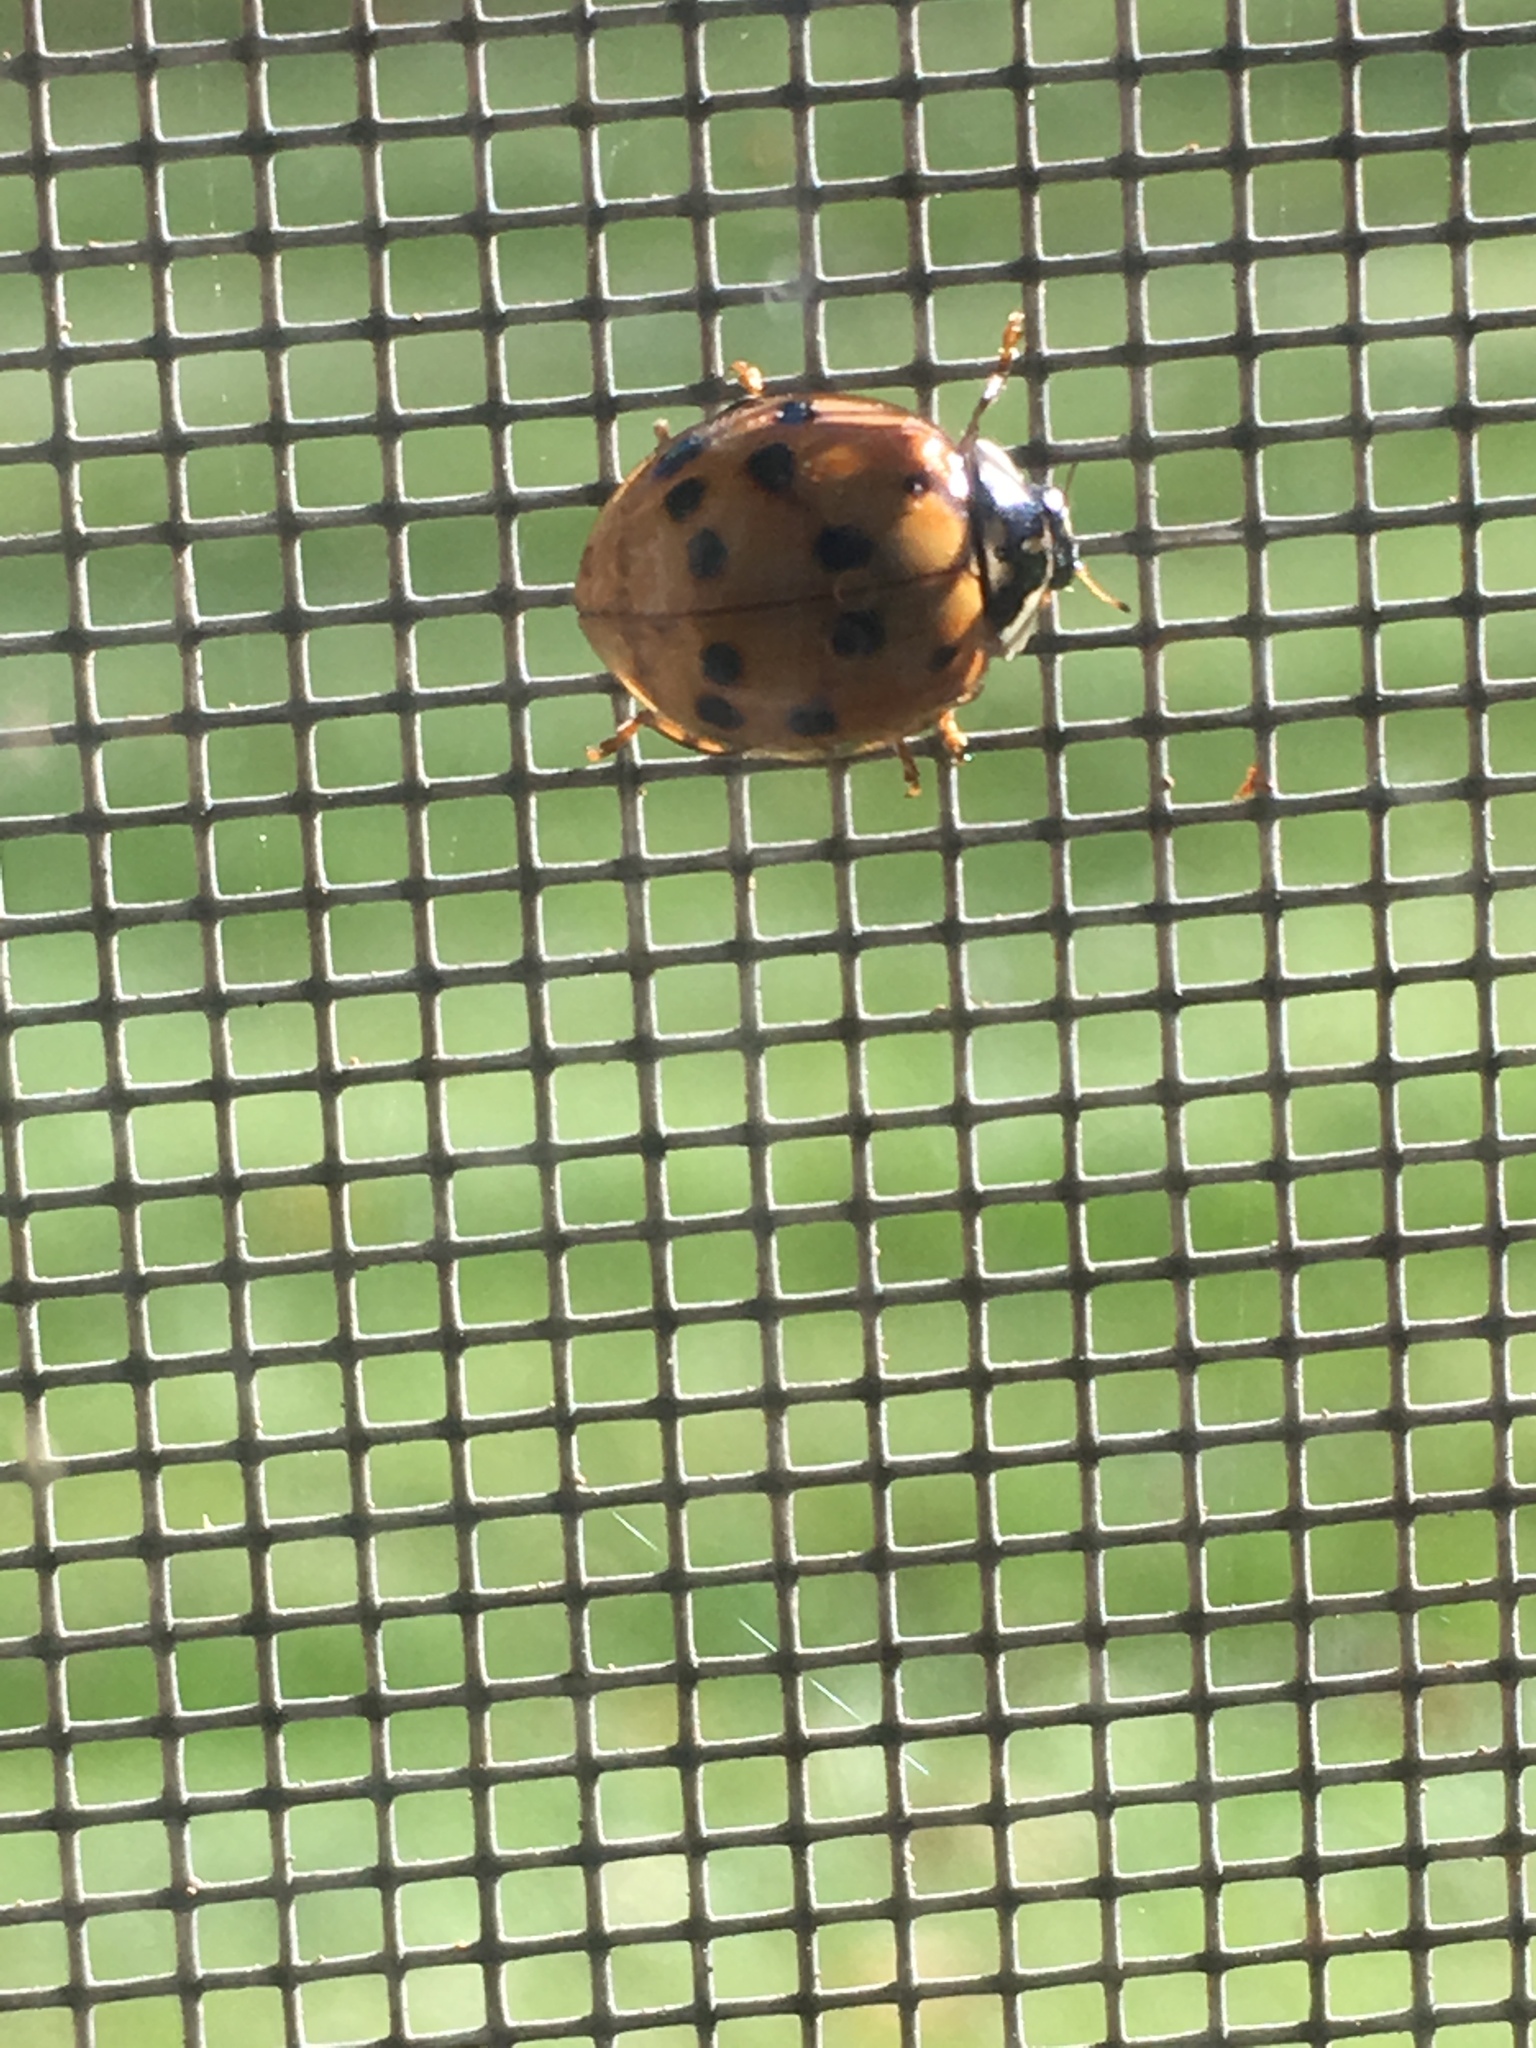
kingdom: Animalia
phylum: Arthropoda
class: Insecta
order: Coleoptera
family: Coccinellidae
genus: Harmonia
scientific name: Harmonia axyridis
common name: Harlequin ladybird
